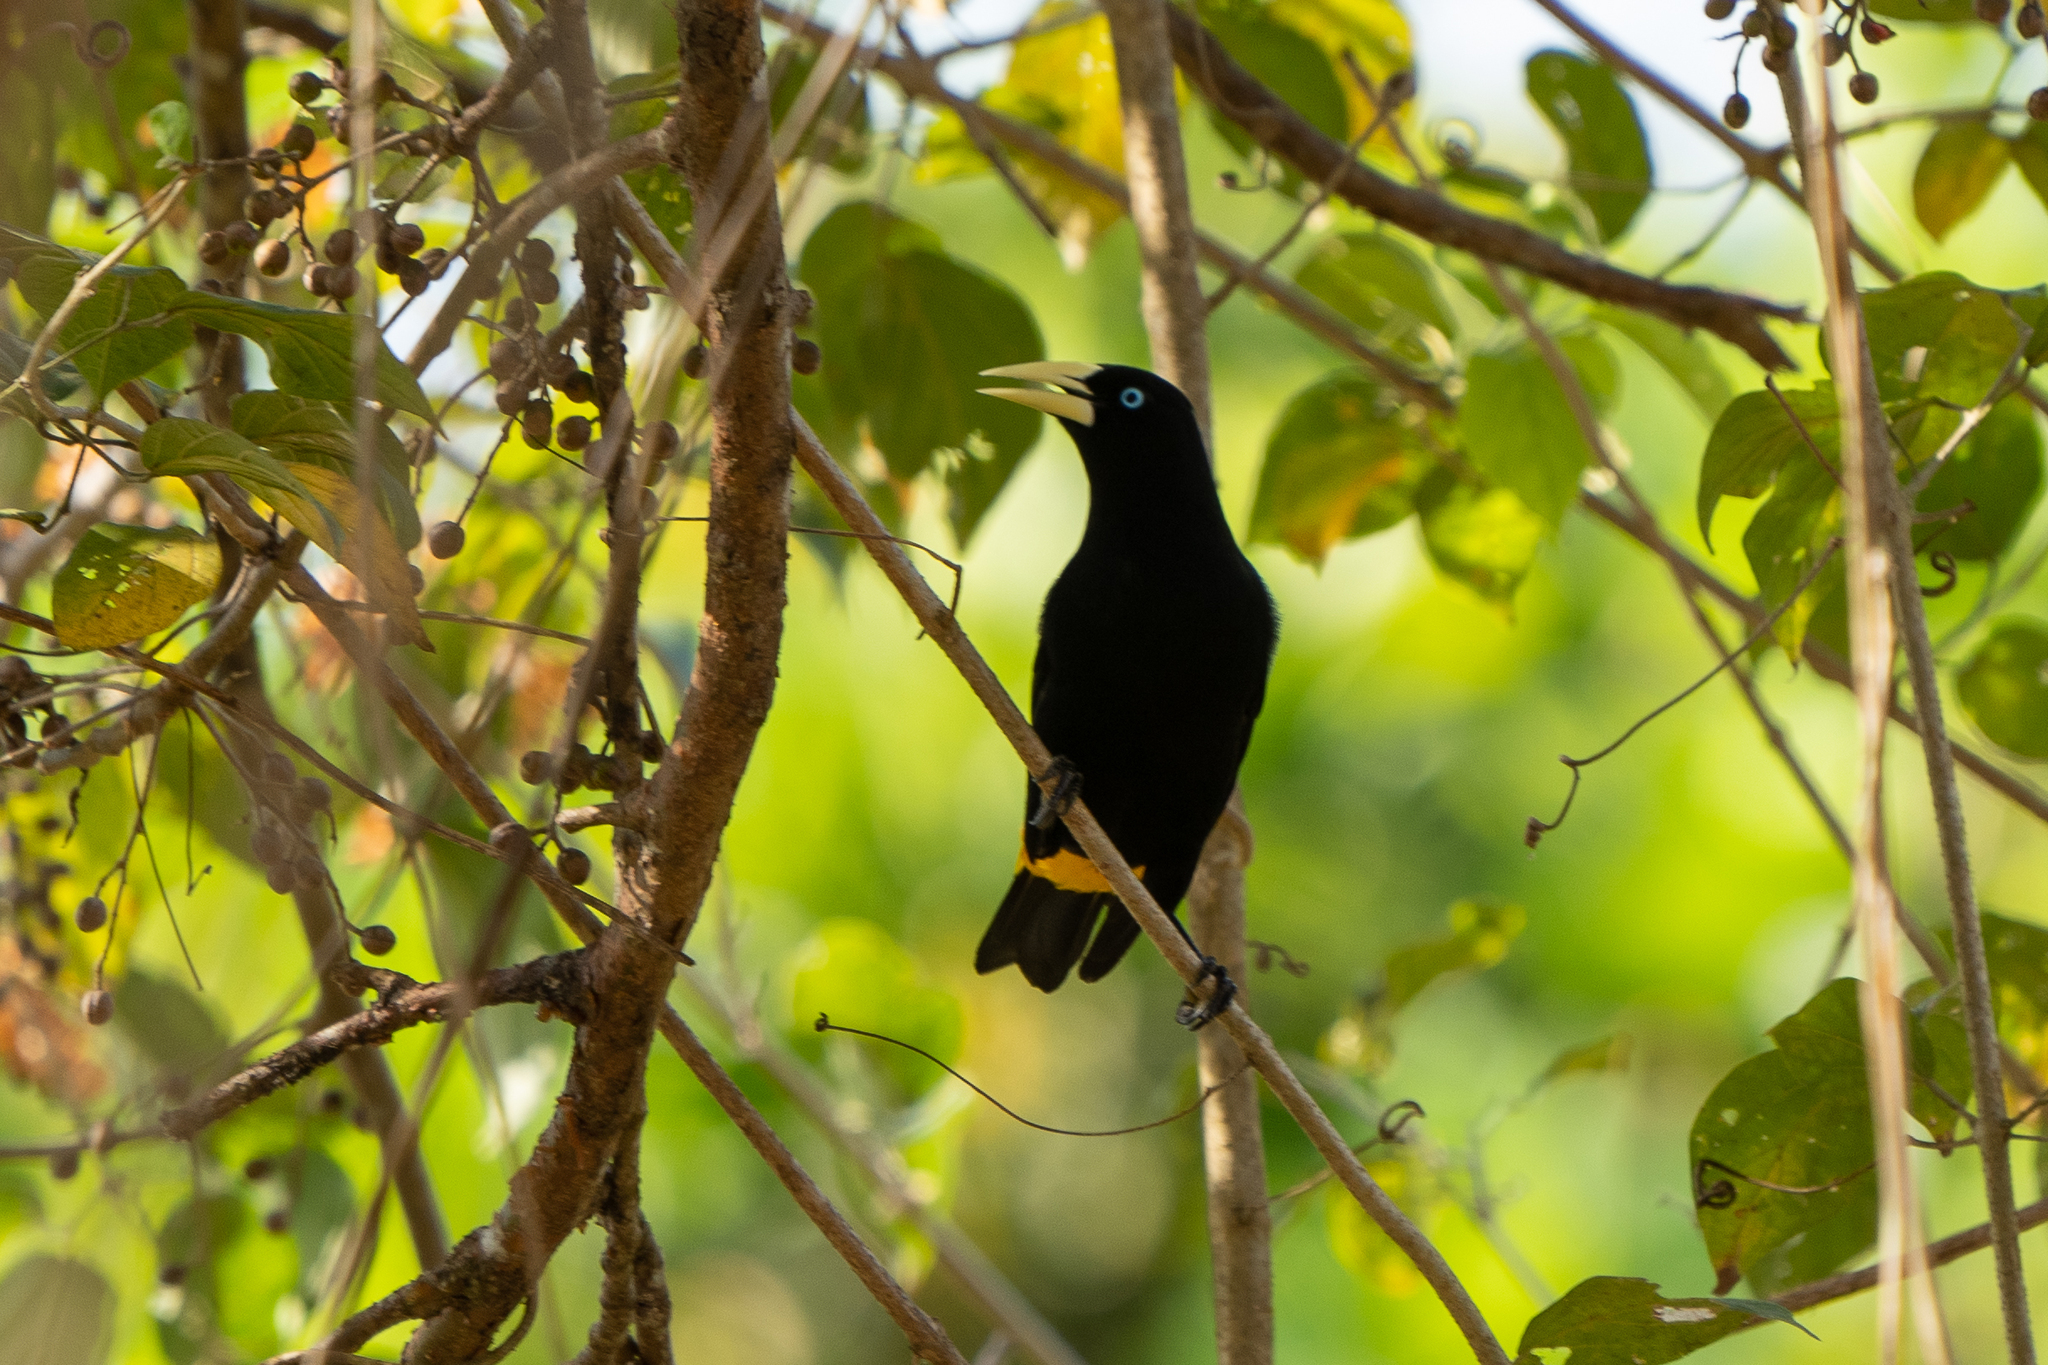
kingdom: Animalia
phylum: Chordata
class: Aves
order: Passeriformes
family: Icteridae
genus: Cacicus
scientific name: Cacicus cela
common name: Yellow-rumped cacique
